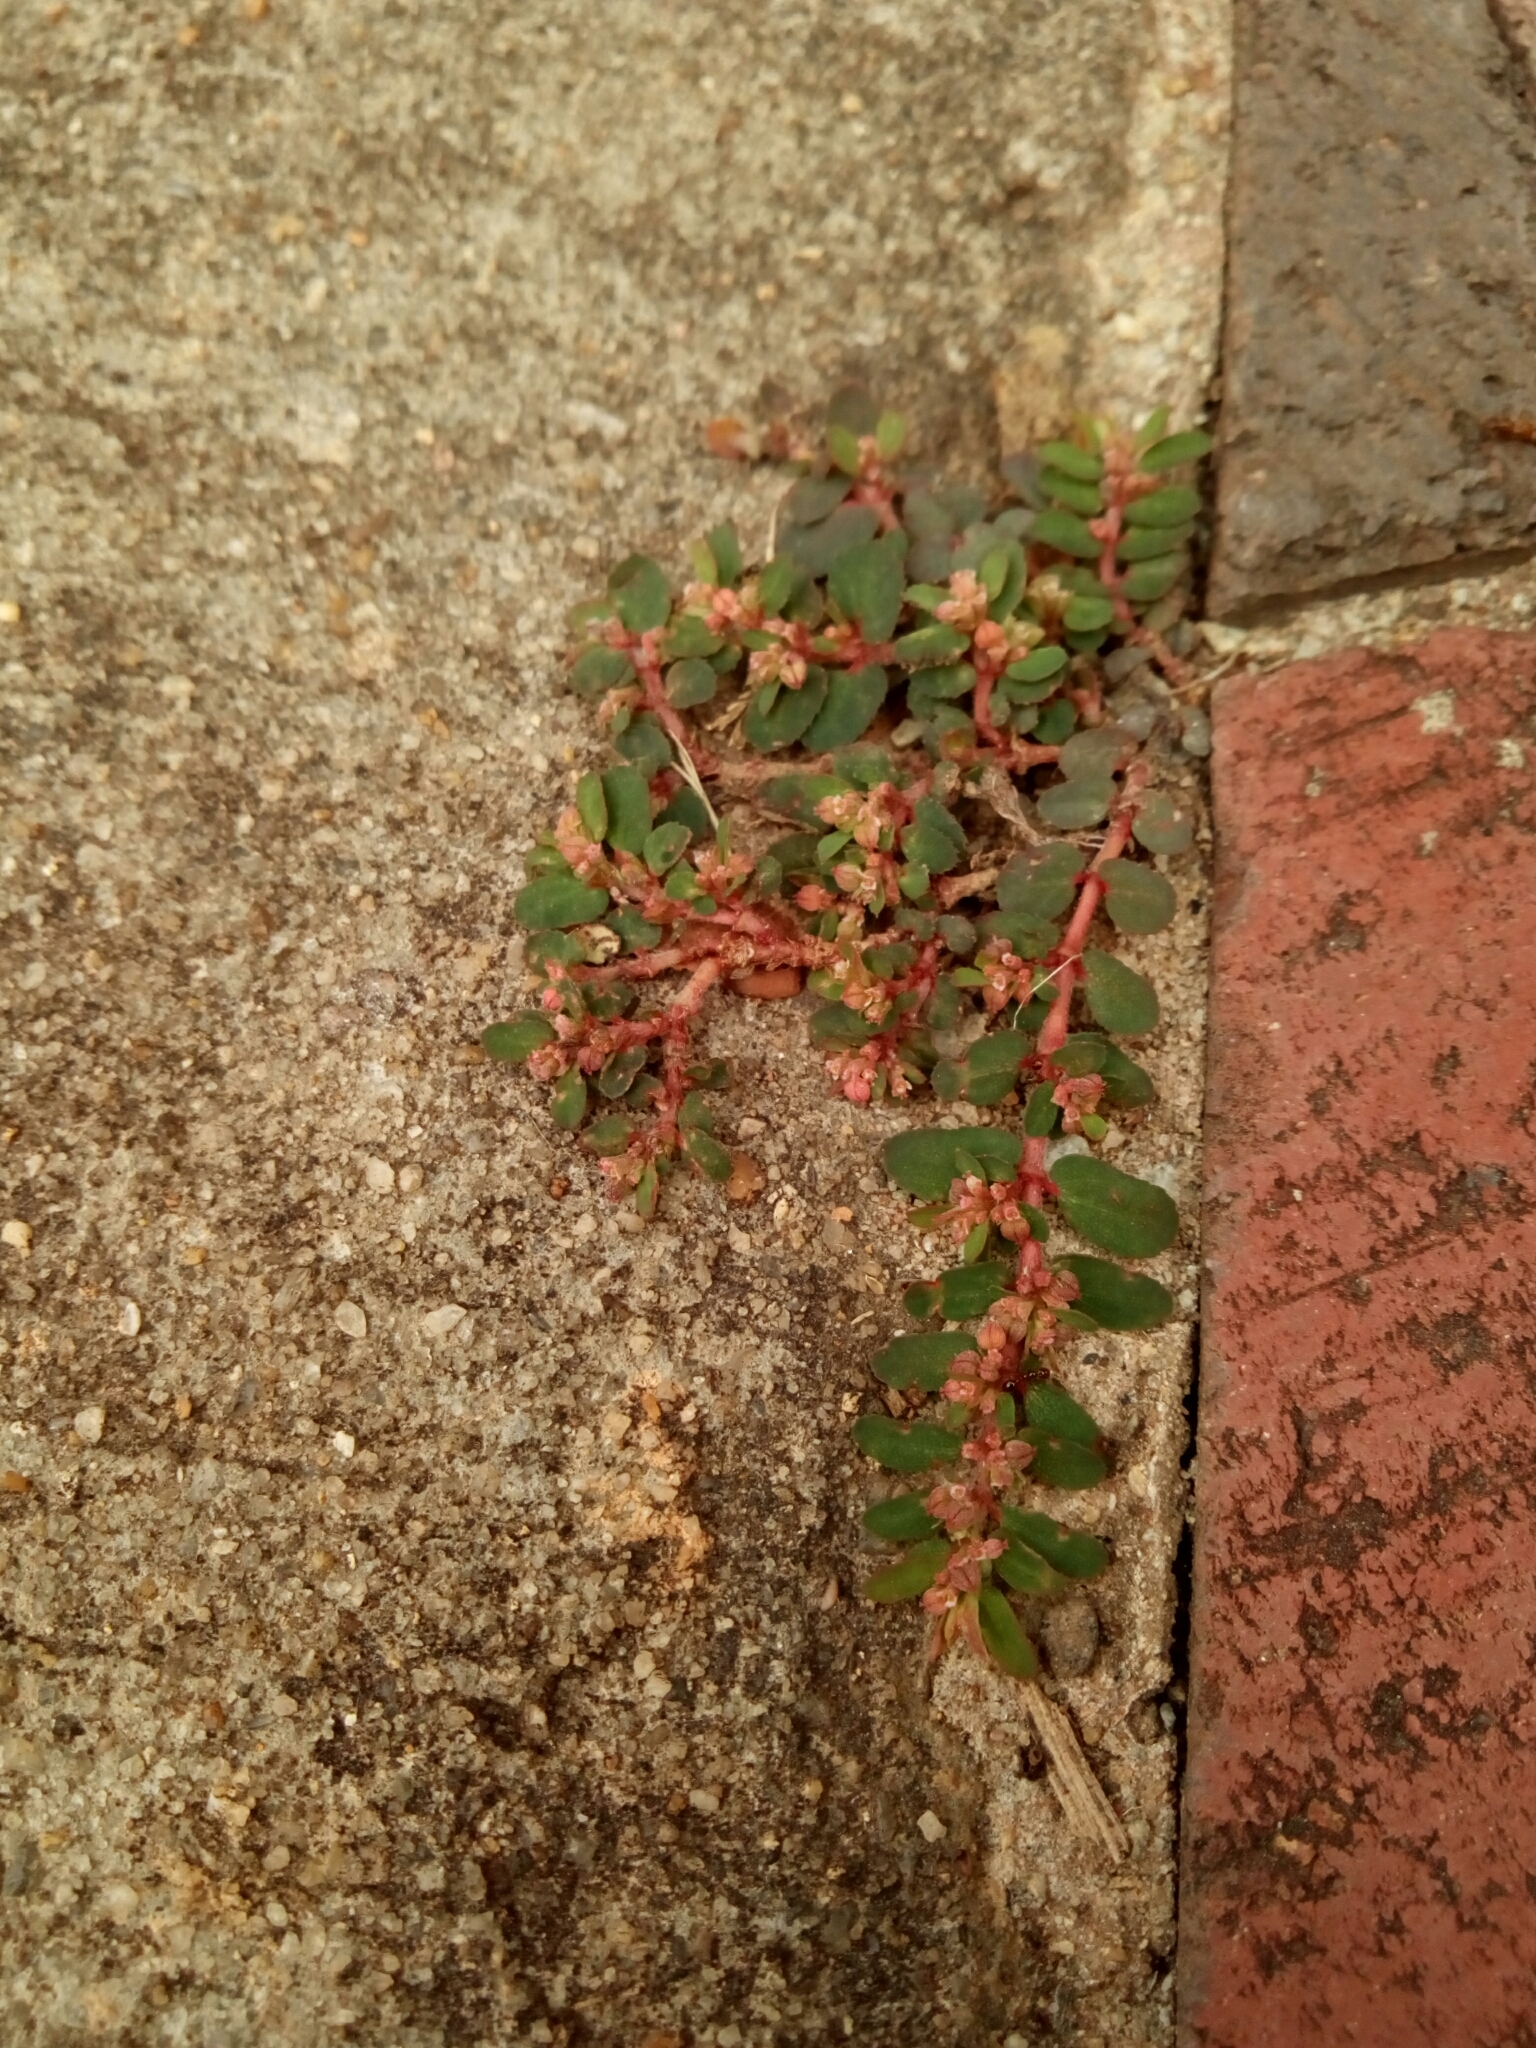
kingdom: Plantae
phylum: Tracheophyta
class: Magnoliopsida
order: Malpighiales
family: Euphorbiaceae
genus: Euphorbia
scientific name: Euphorbia maculata
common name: Spotted spurge
